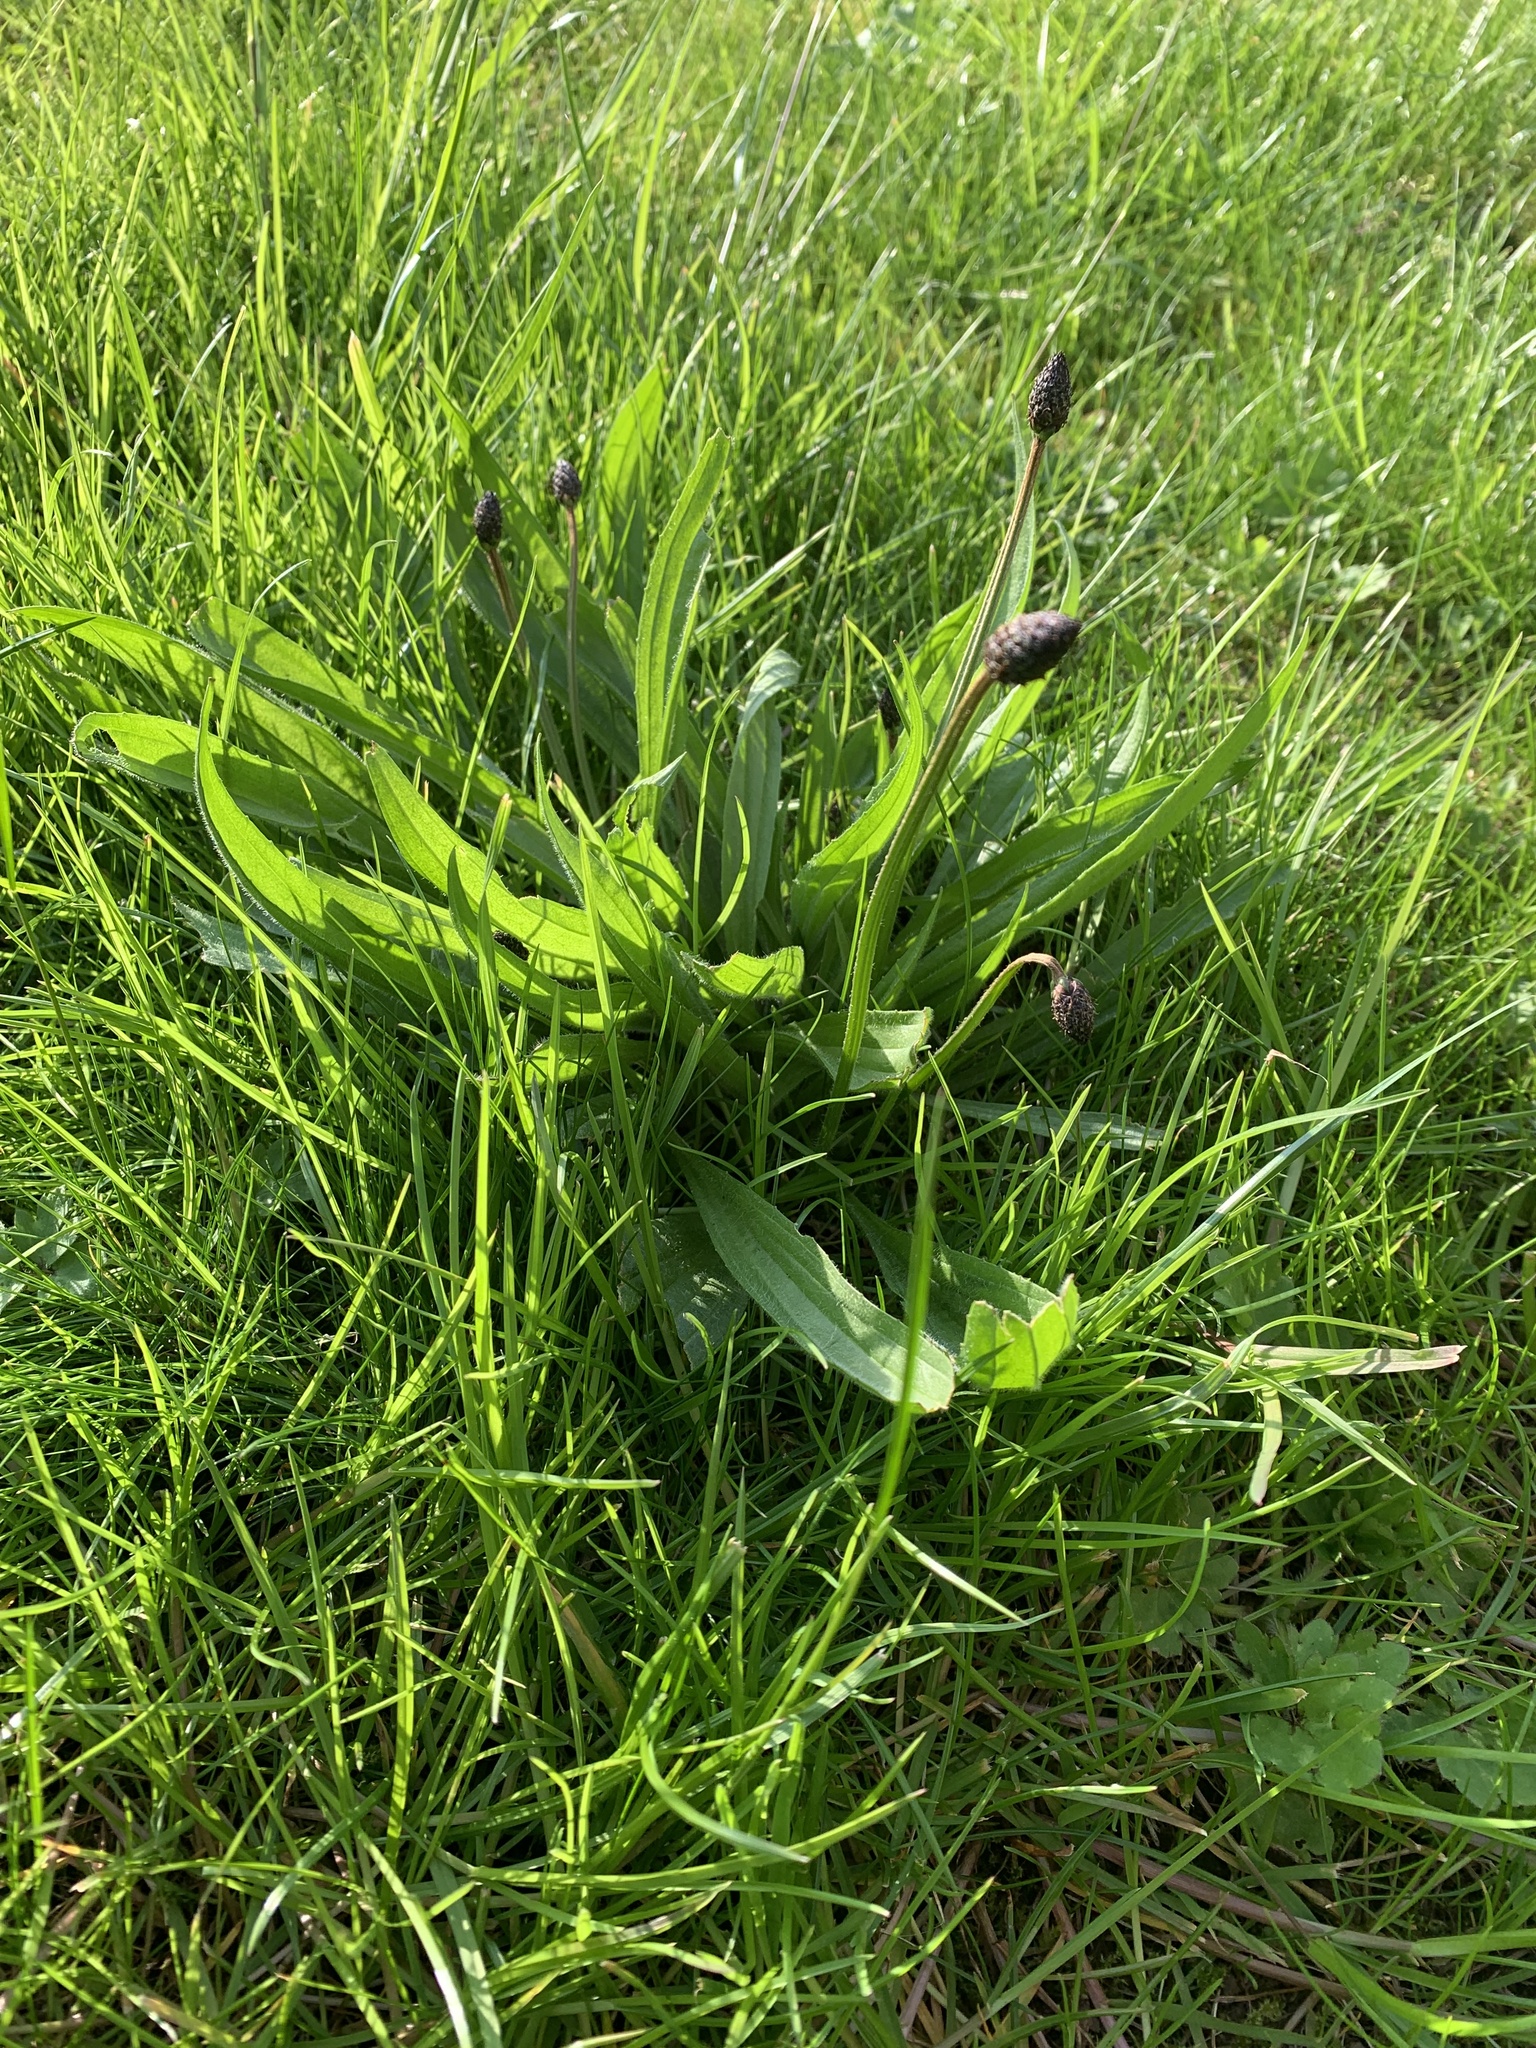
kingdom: Plantae
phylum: Tracheophyta
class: Magnoliopsida
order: Lamiales
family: Plantaginaceae
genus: Plantago
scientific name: Plantago lanceolata
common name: Ribwort plantain
